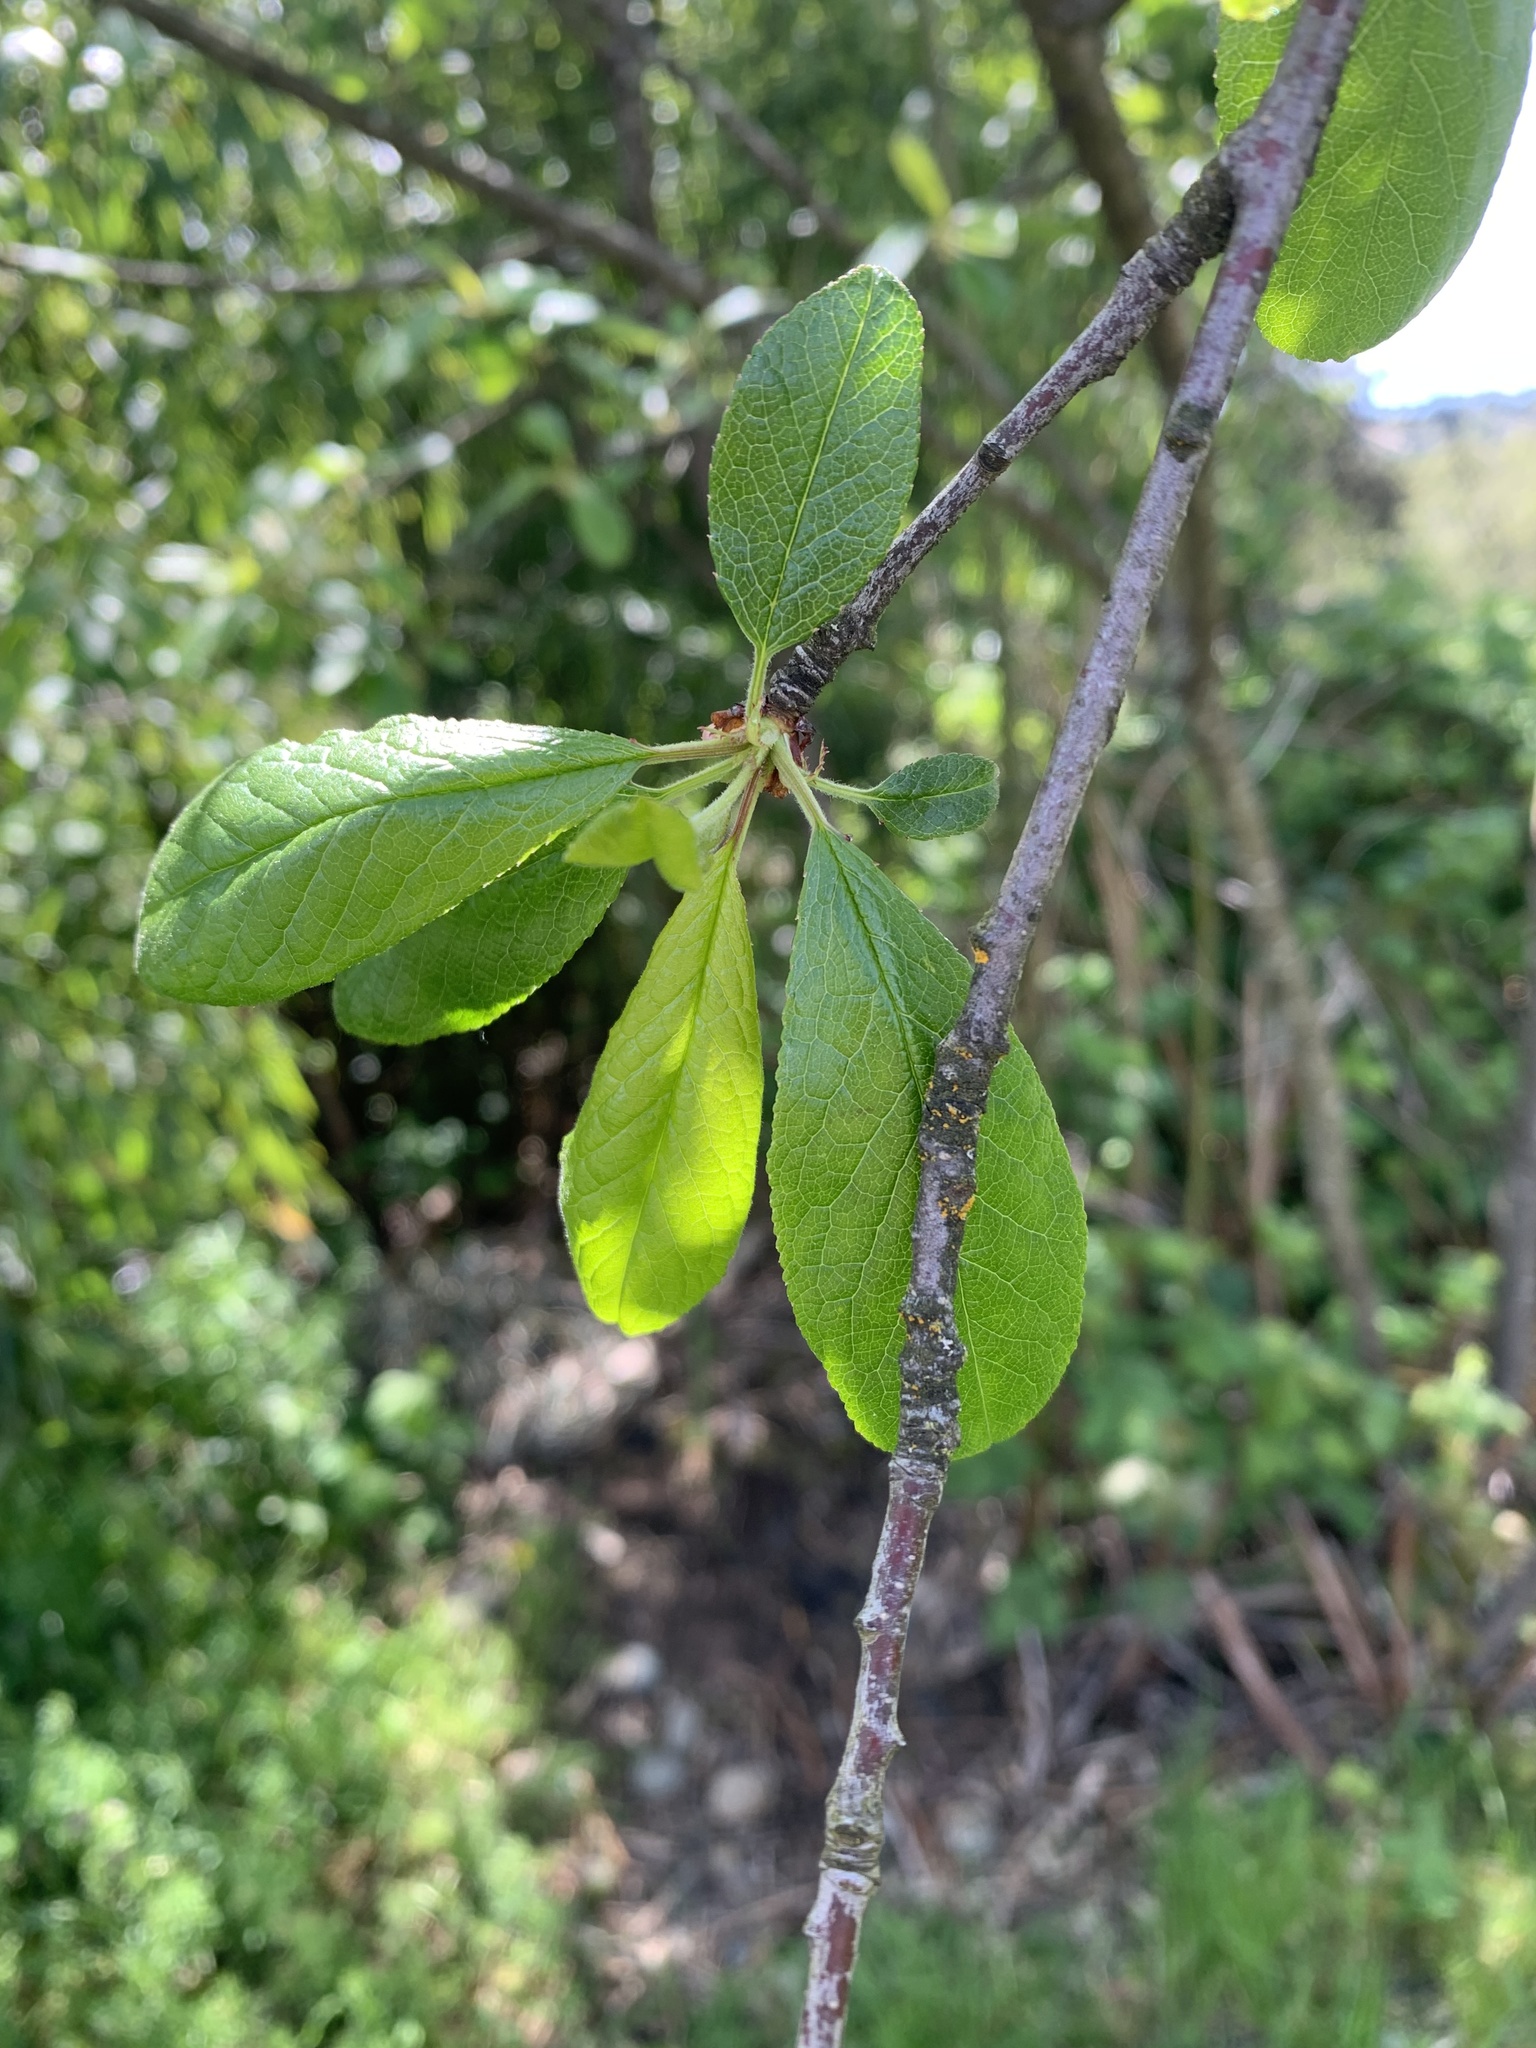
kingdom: Plantae
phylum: Tracheophyta
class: Magnoliopsida
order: Rosales
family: Rosaceae
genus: Prunus
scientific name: Prunus emarginata
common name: Bitter cherry
